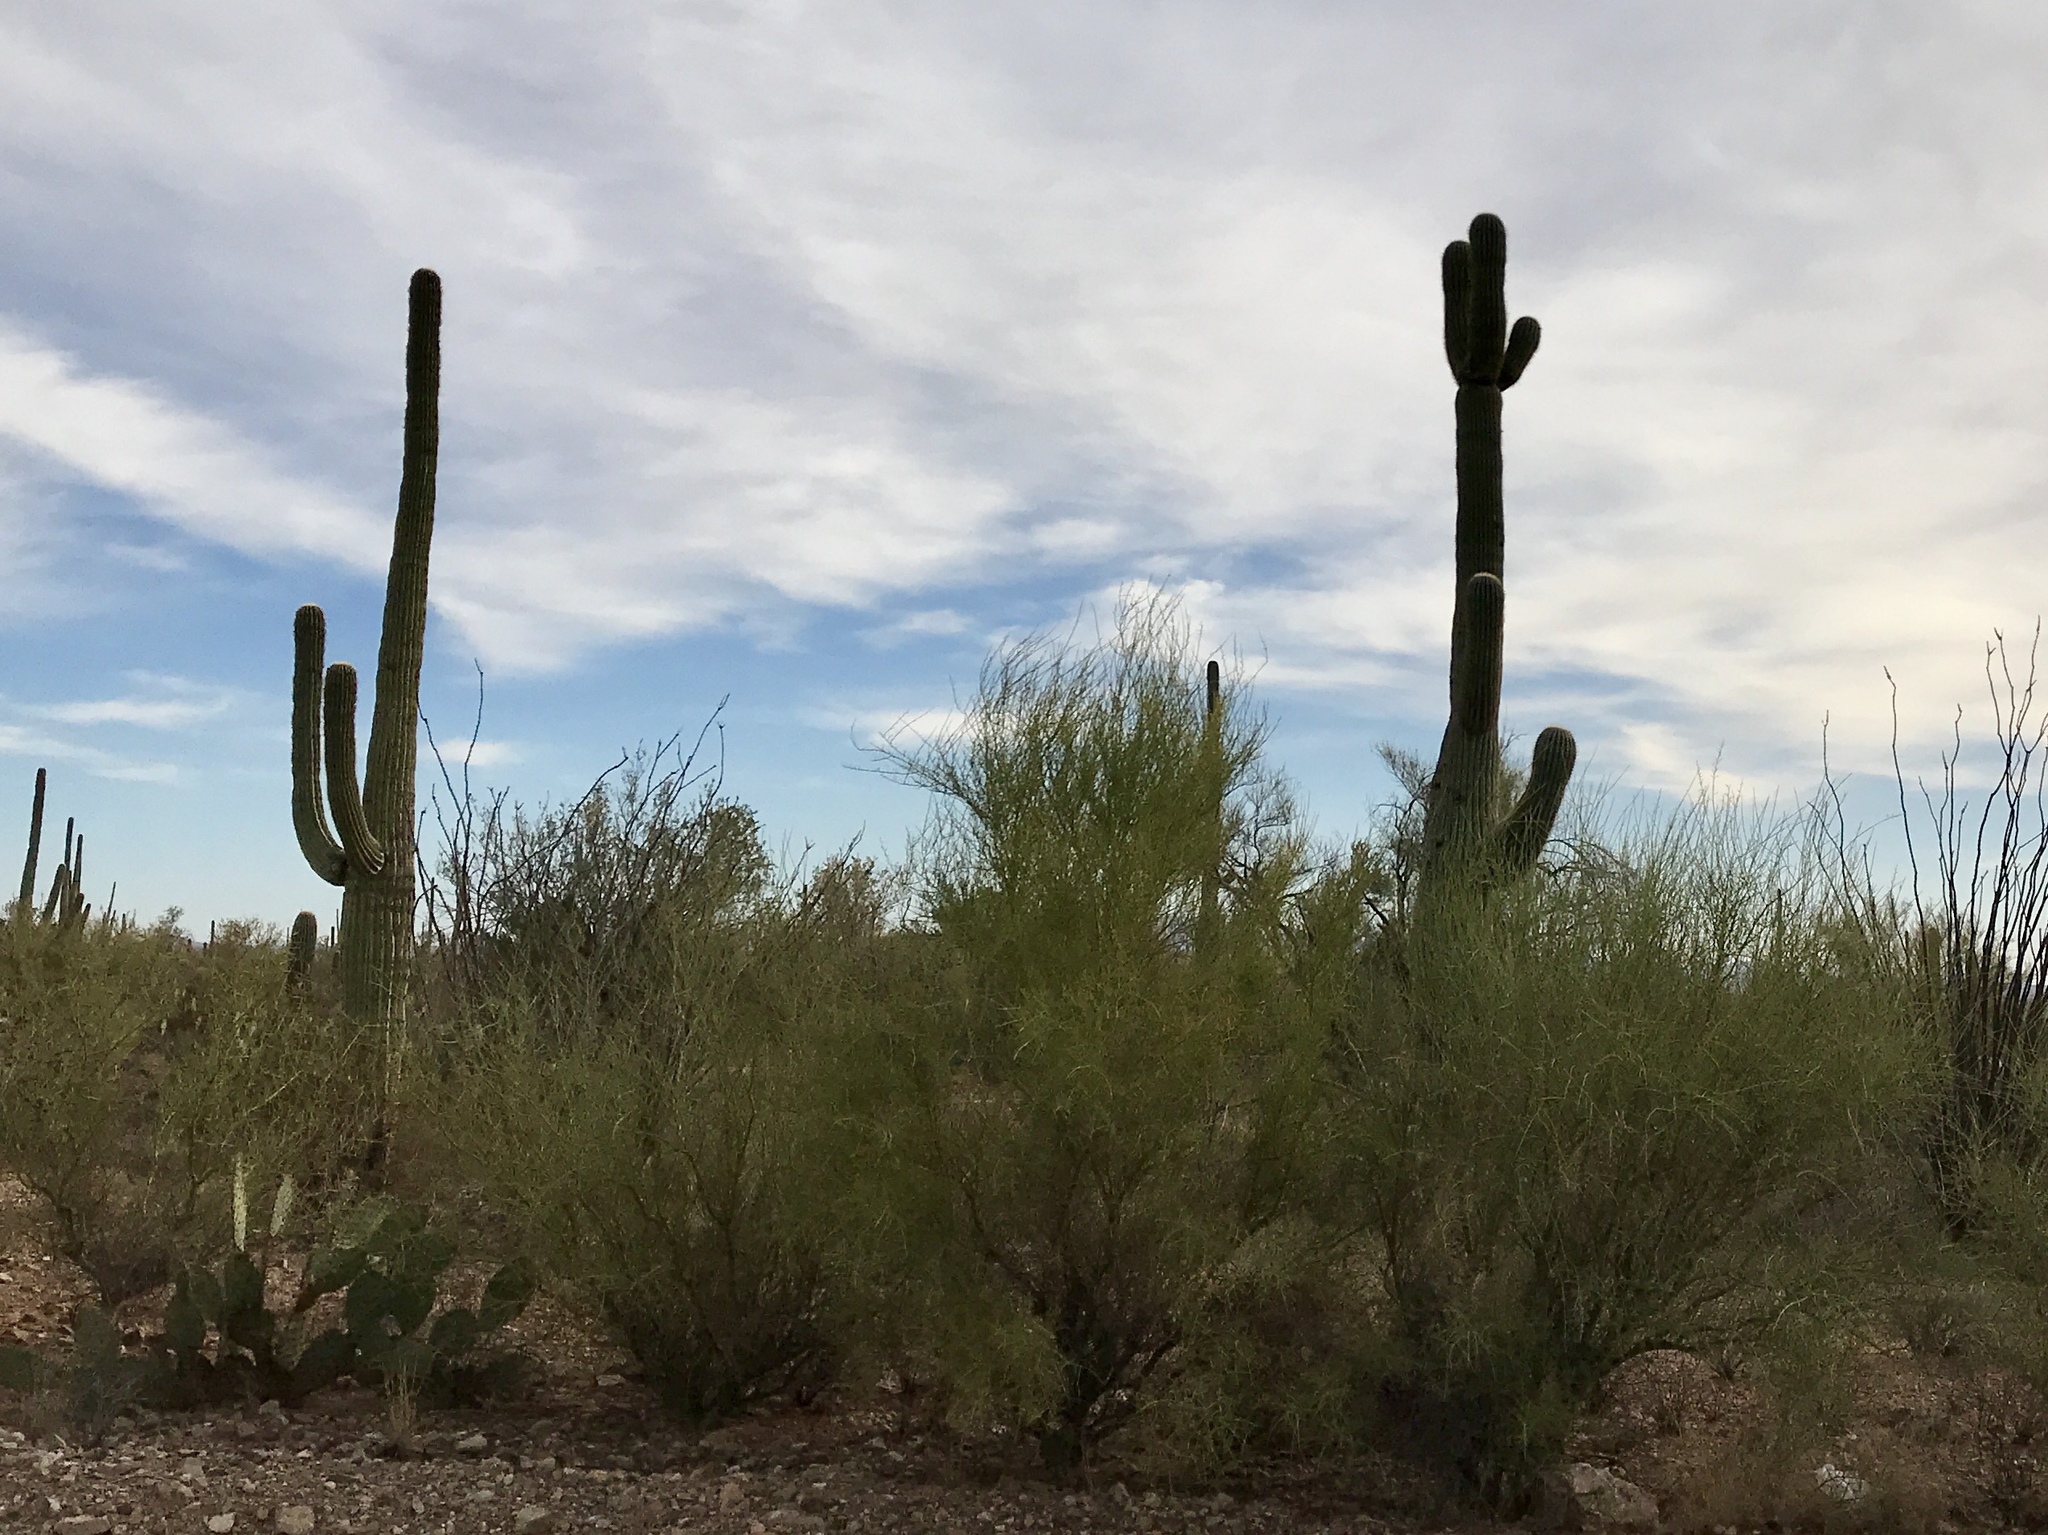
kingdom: Plantae
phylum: Tracheophyta
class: Magnoliopsida
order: Caryophyllales
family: Cactaceae
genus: Carnegiea
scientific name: Carnegiea gigantea
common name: Saguaro
